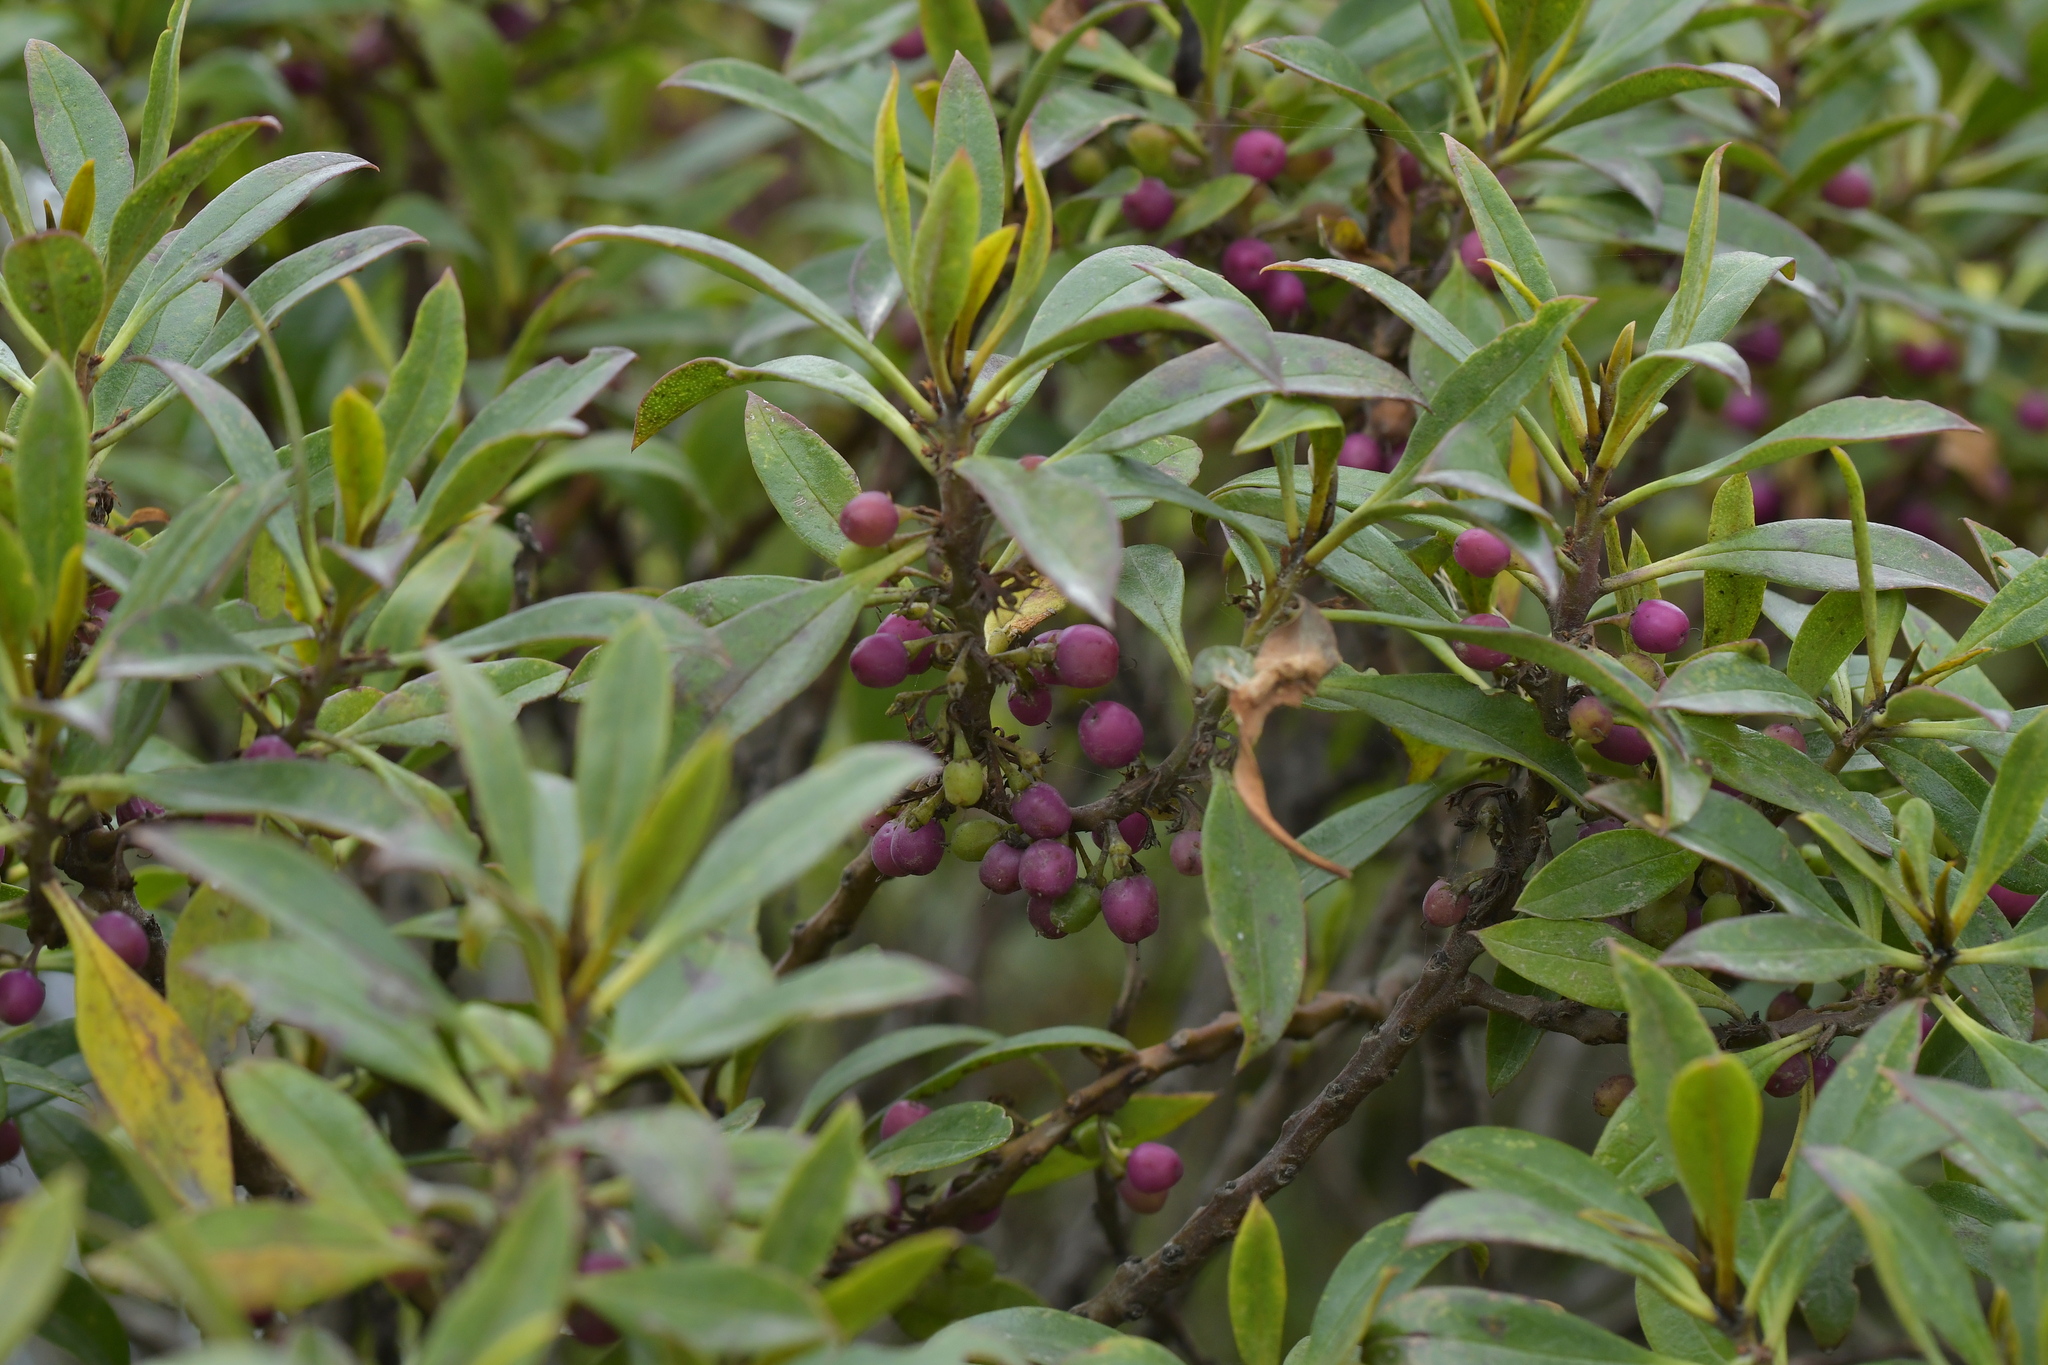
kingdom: Plantae
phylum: Tracheophyta
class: Magnoliopsida
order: Lamiales
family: Scrophulariaceae
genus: Myoporum
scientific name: Myoporum laetum
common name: Ngaio tree
